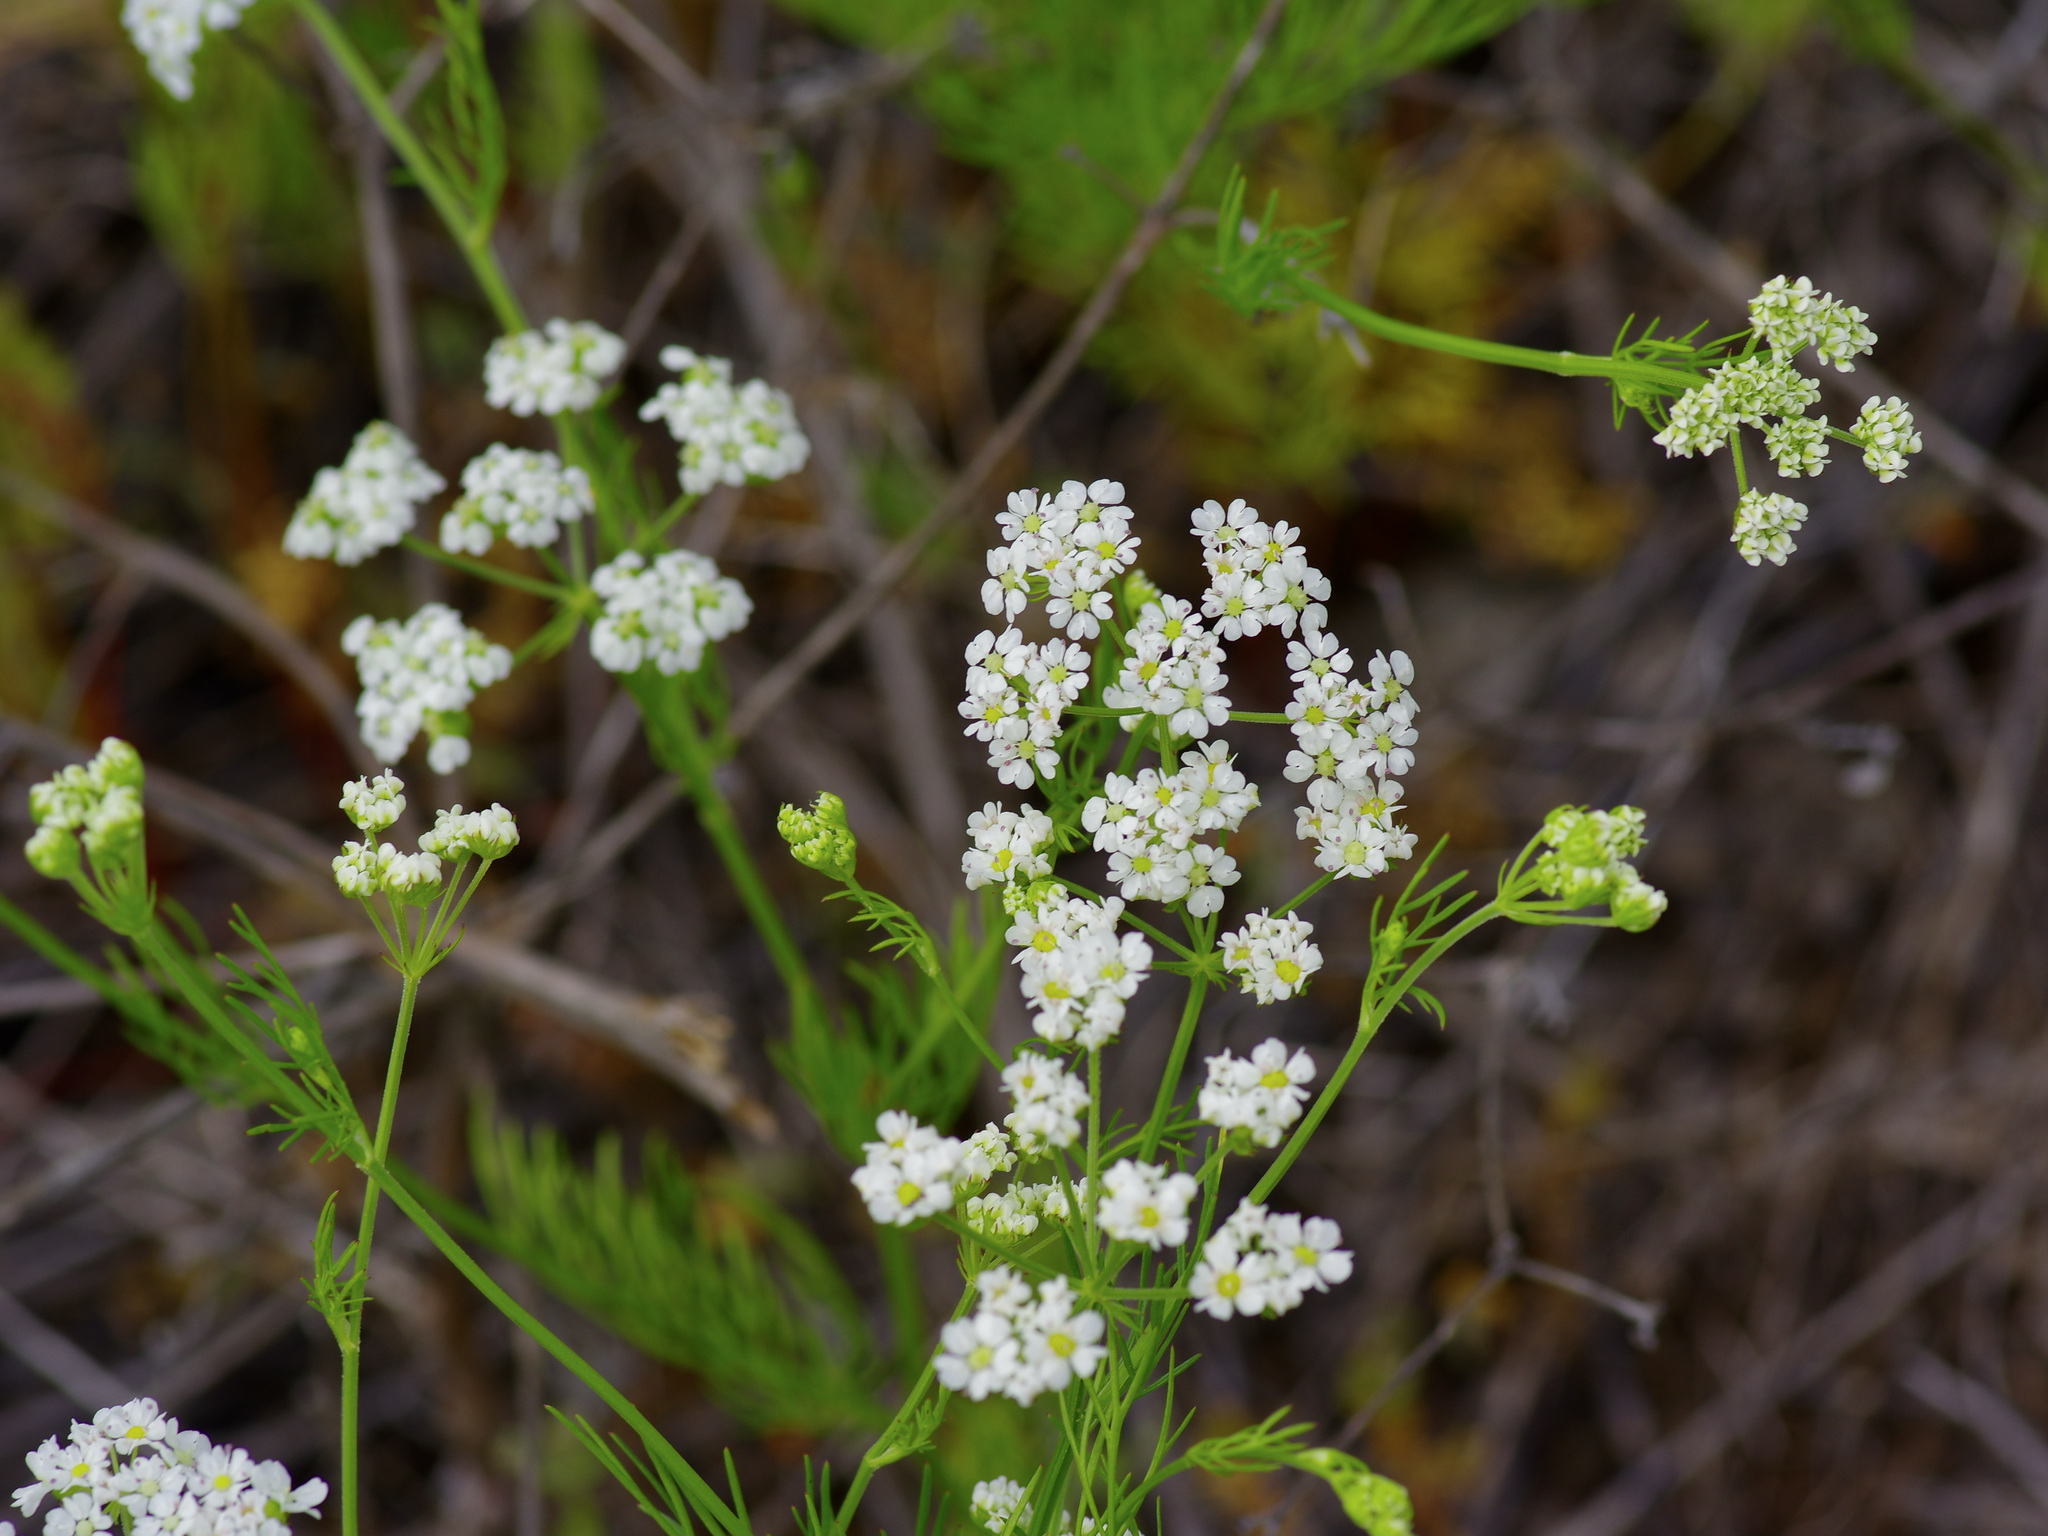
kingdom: Plantae
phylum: Tracheophyta
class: Magnoliopsida
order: Apiales
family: Apiaceae
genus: Atrema
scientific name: Atrema americanum
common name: Prairie-bishop
